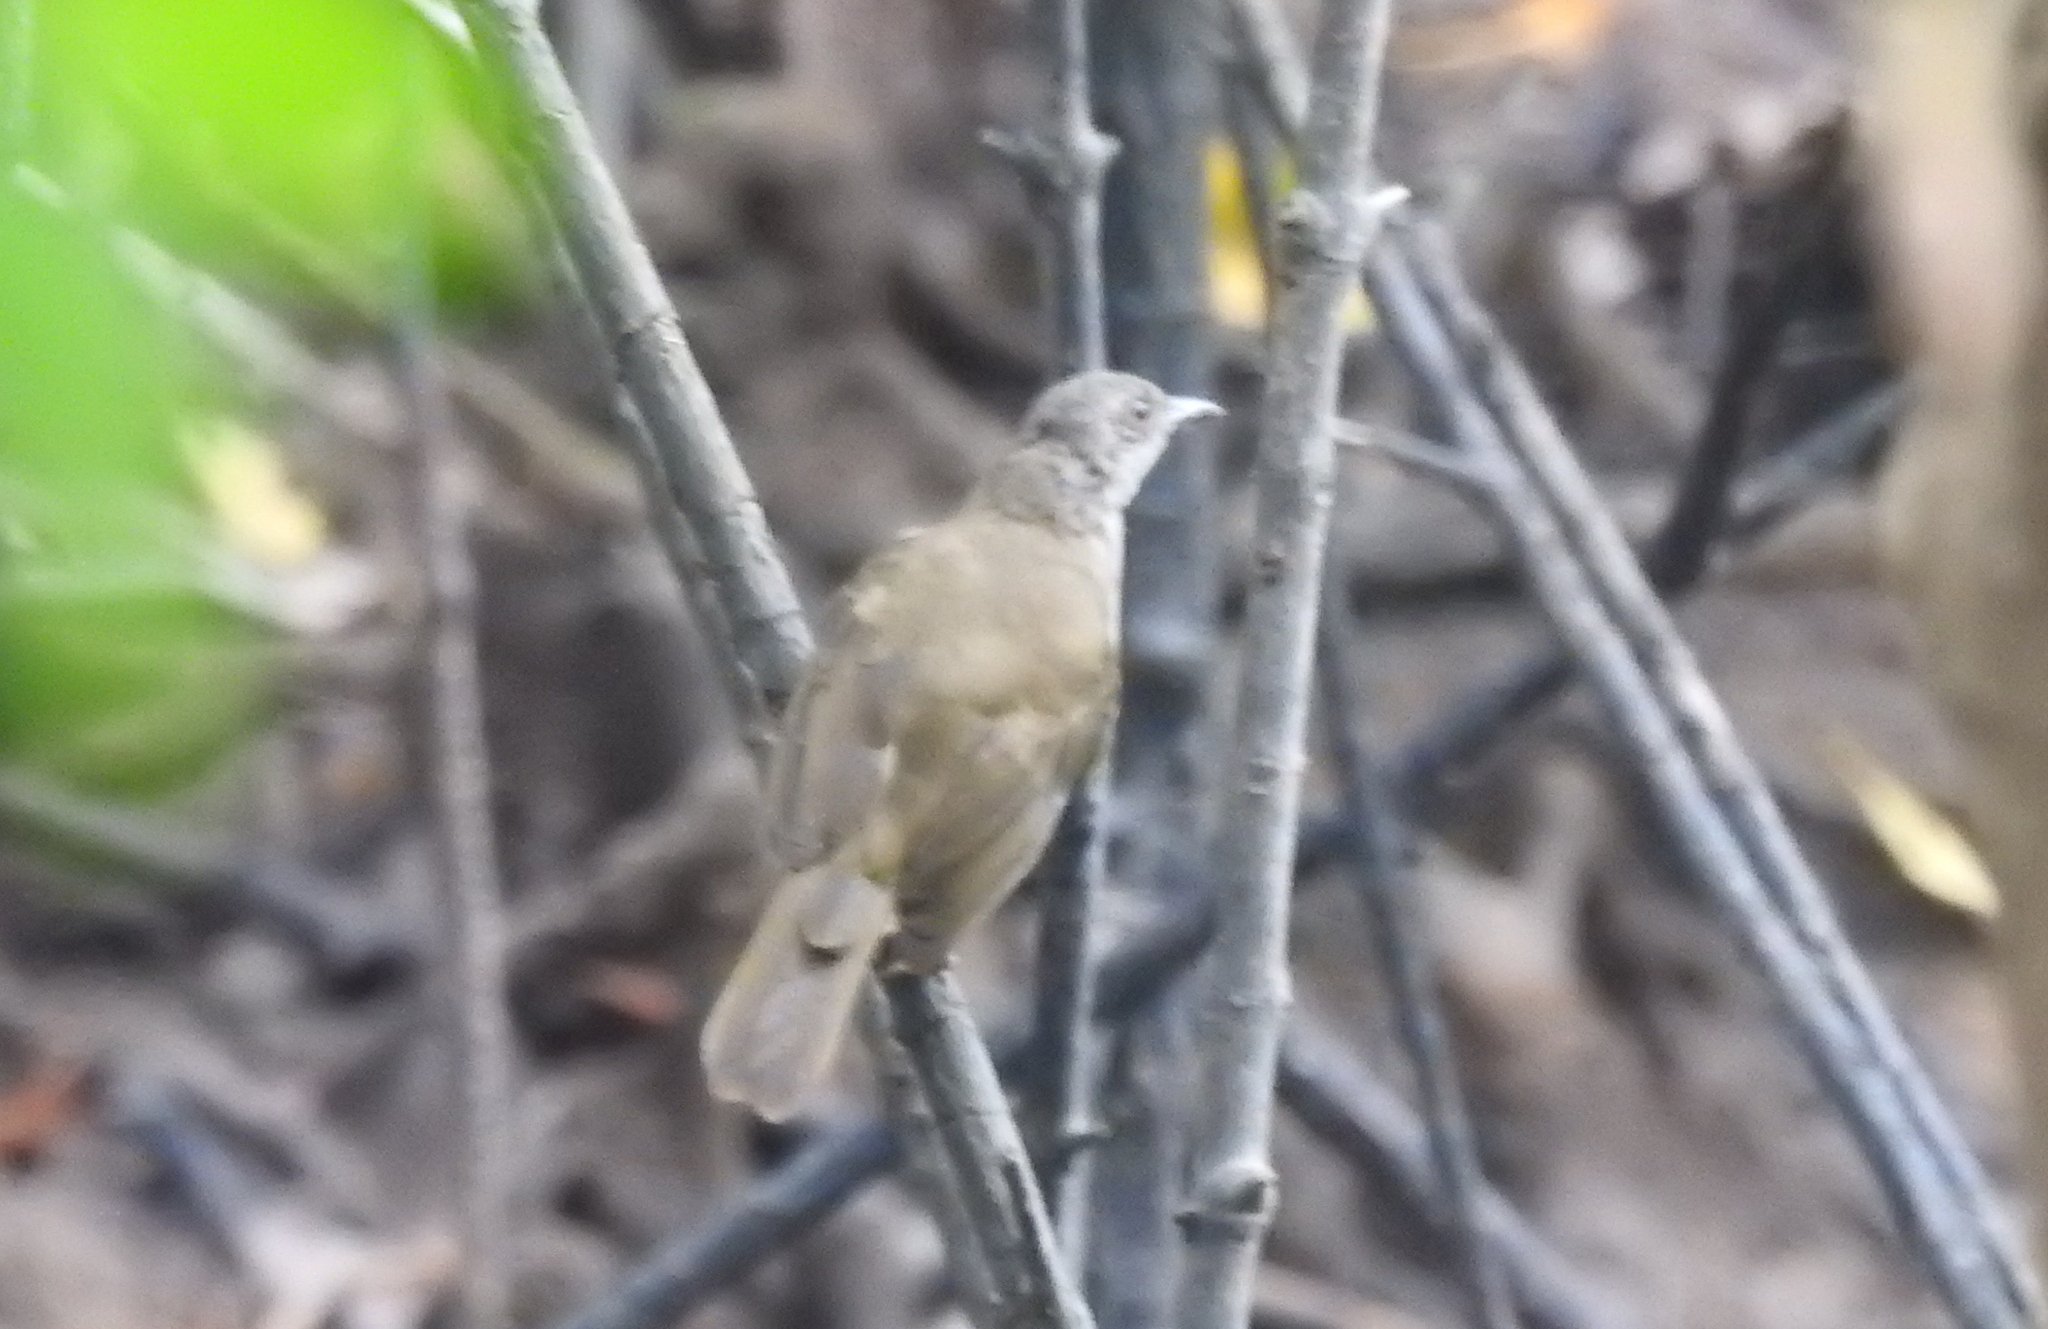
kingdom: Animalia
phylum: Chordata
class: Aves
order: Passeriformes
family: Pycnonotidae
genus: Pycnonotus
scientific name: Pycnonotus plumosus
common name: Olive-winged bulbul
